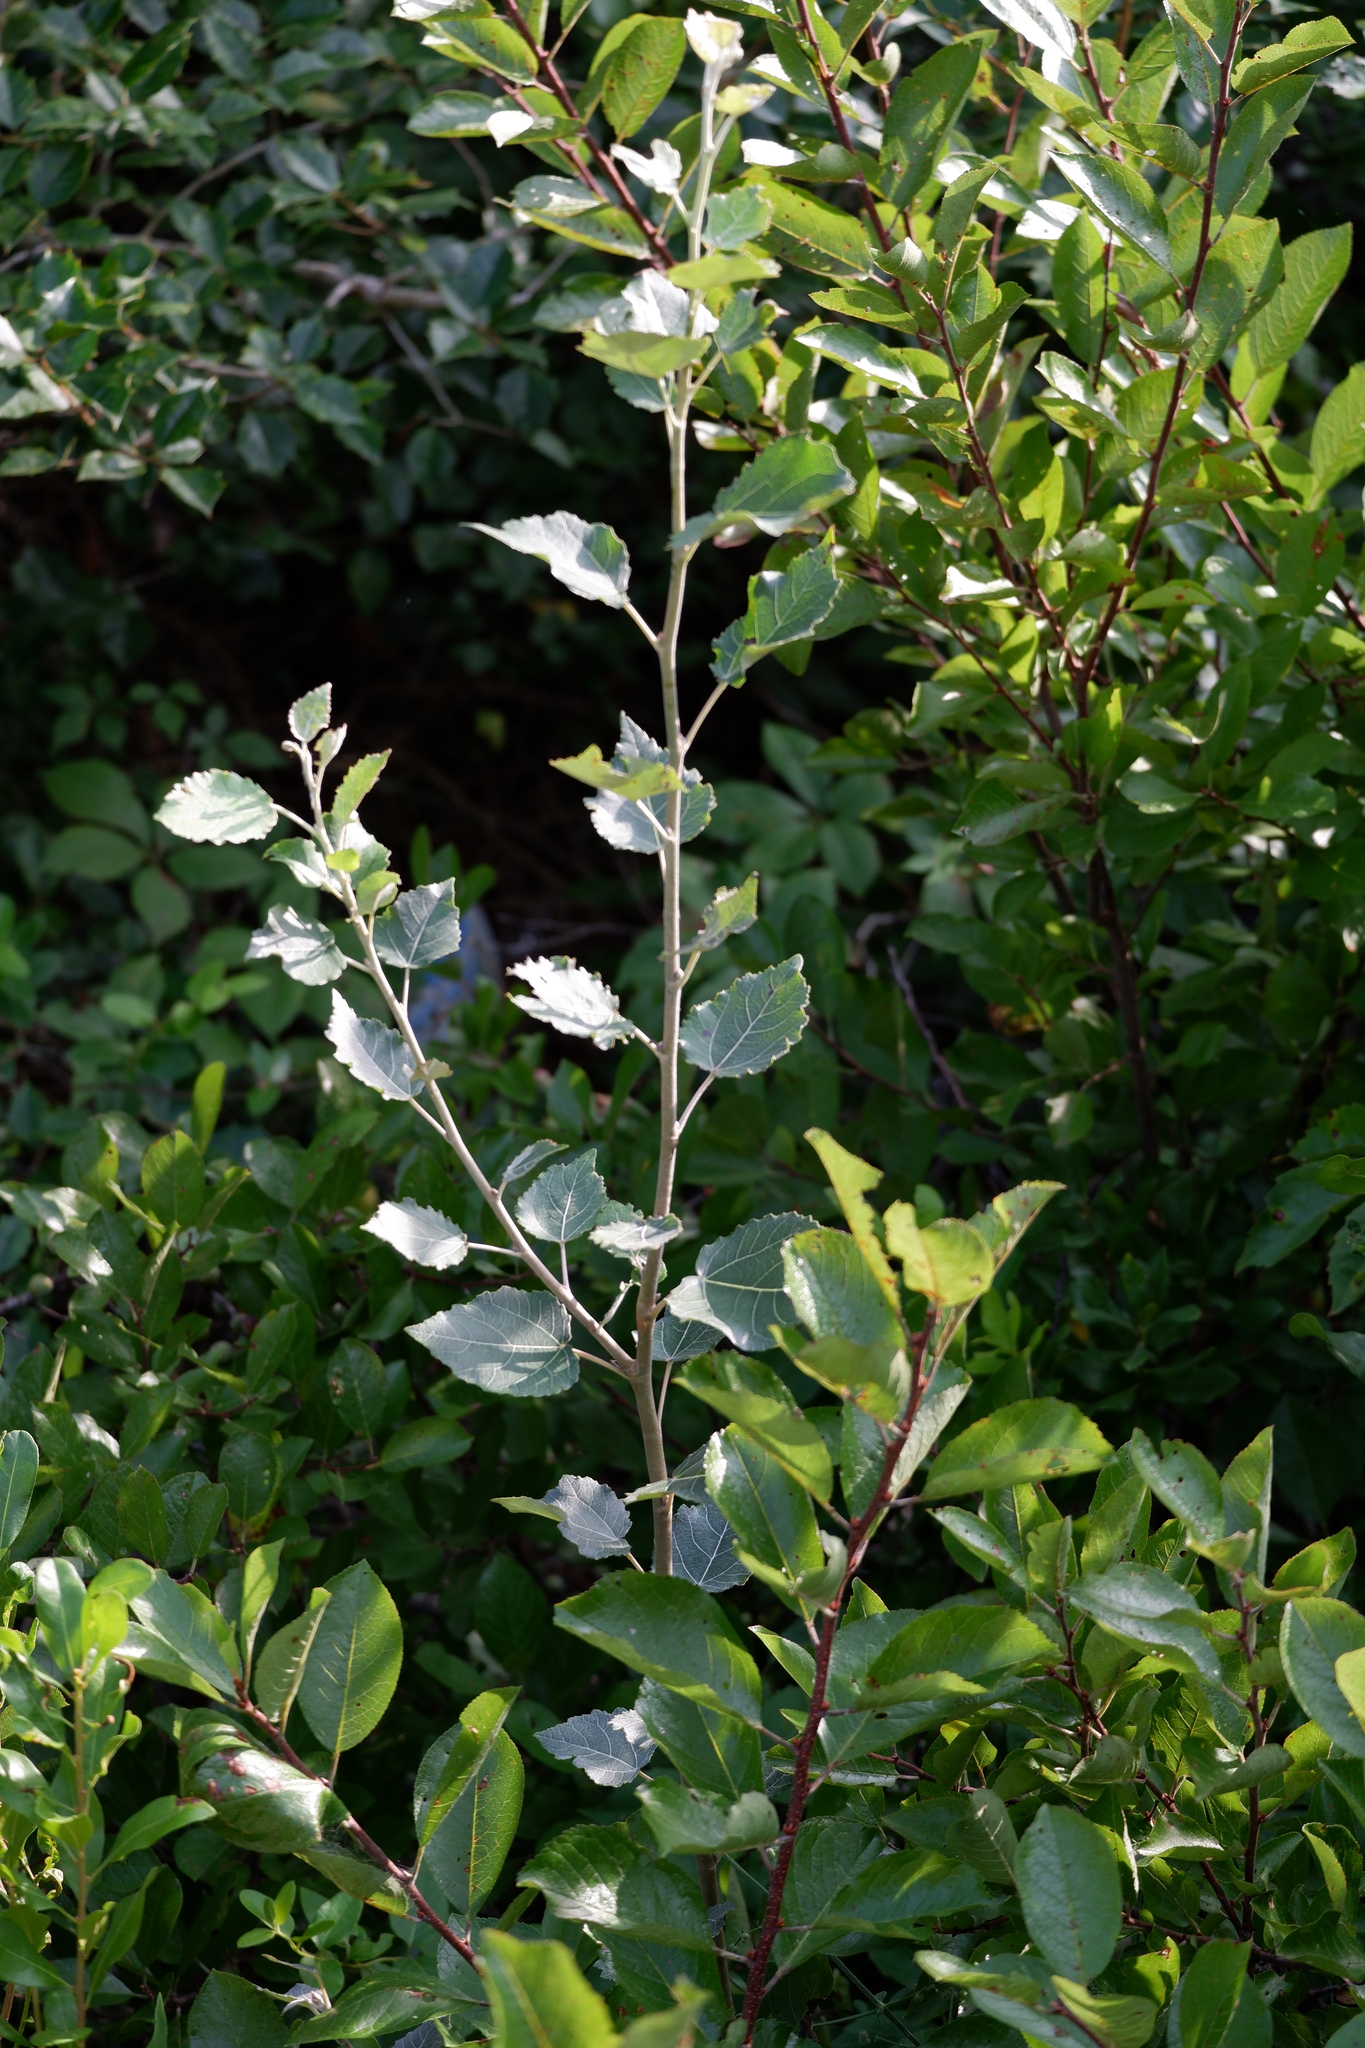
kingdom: Plantae
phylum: Tracheophyta
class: Magnoliopsida
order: Malpighiales
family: Salicaceae
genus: Populus
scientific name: Populus alba
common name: White poplar
